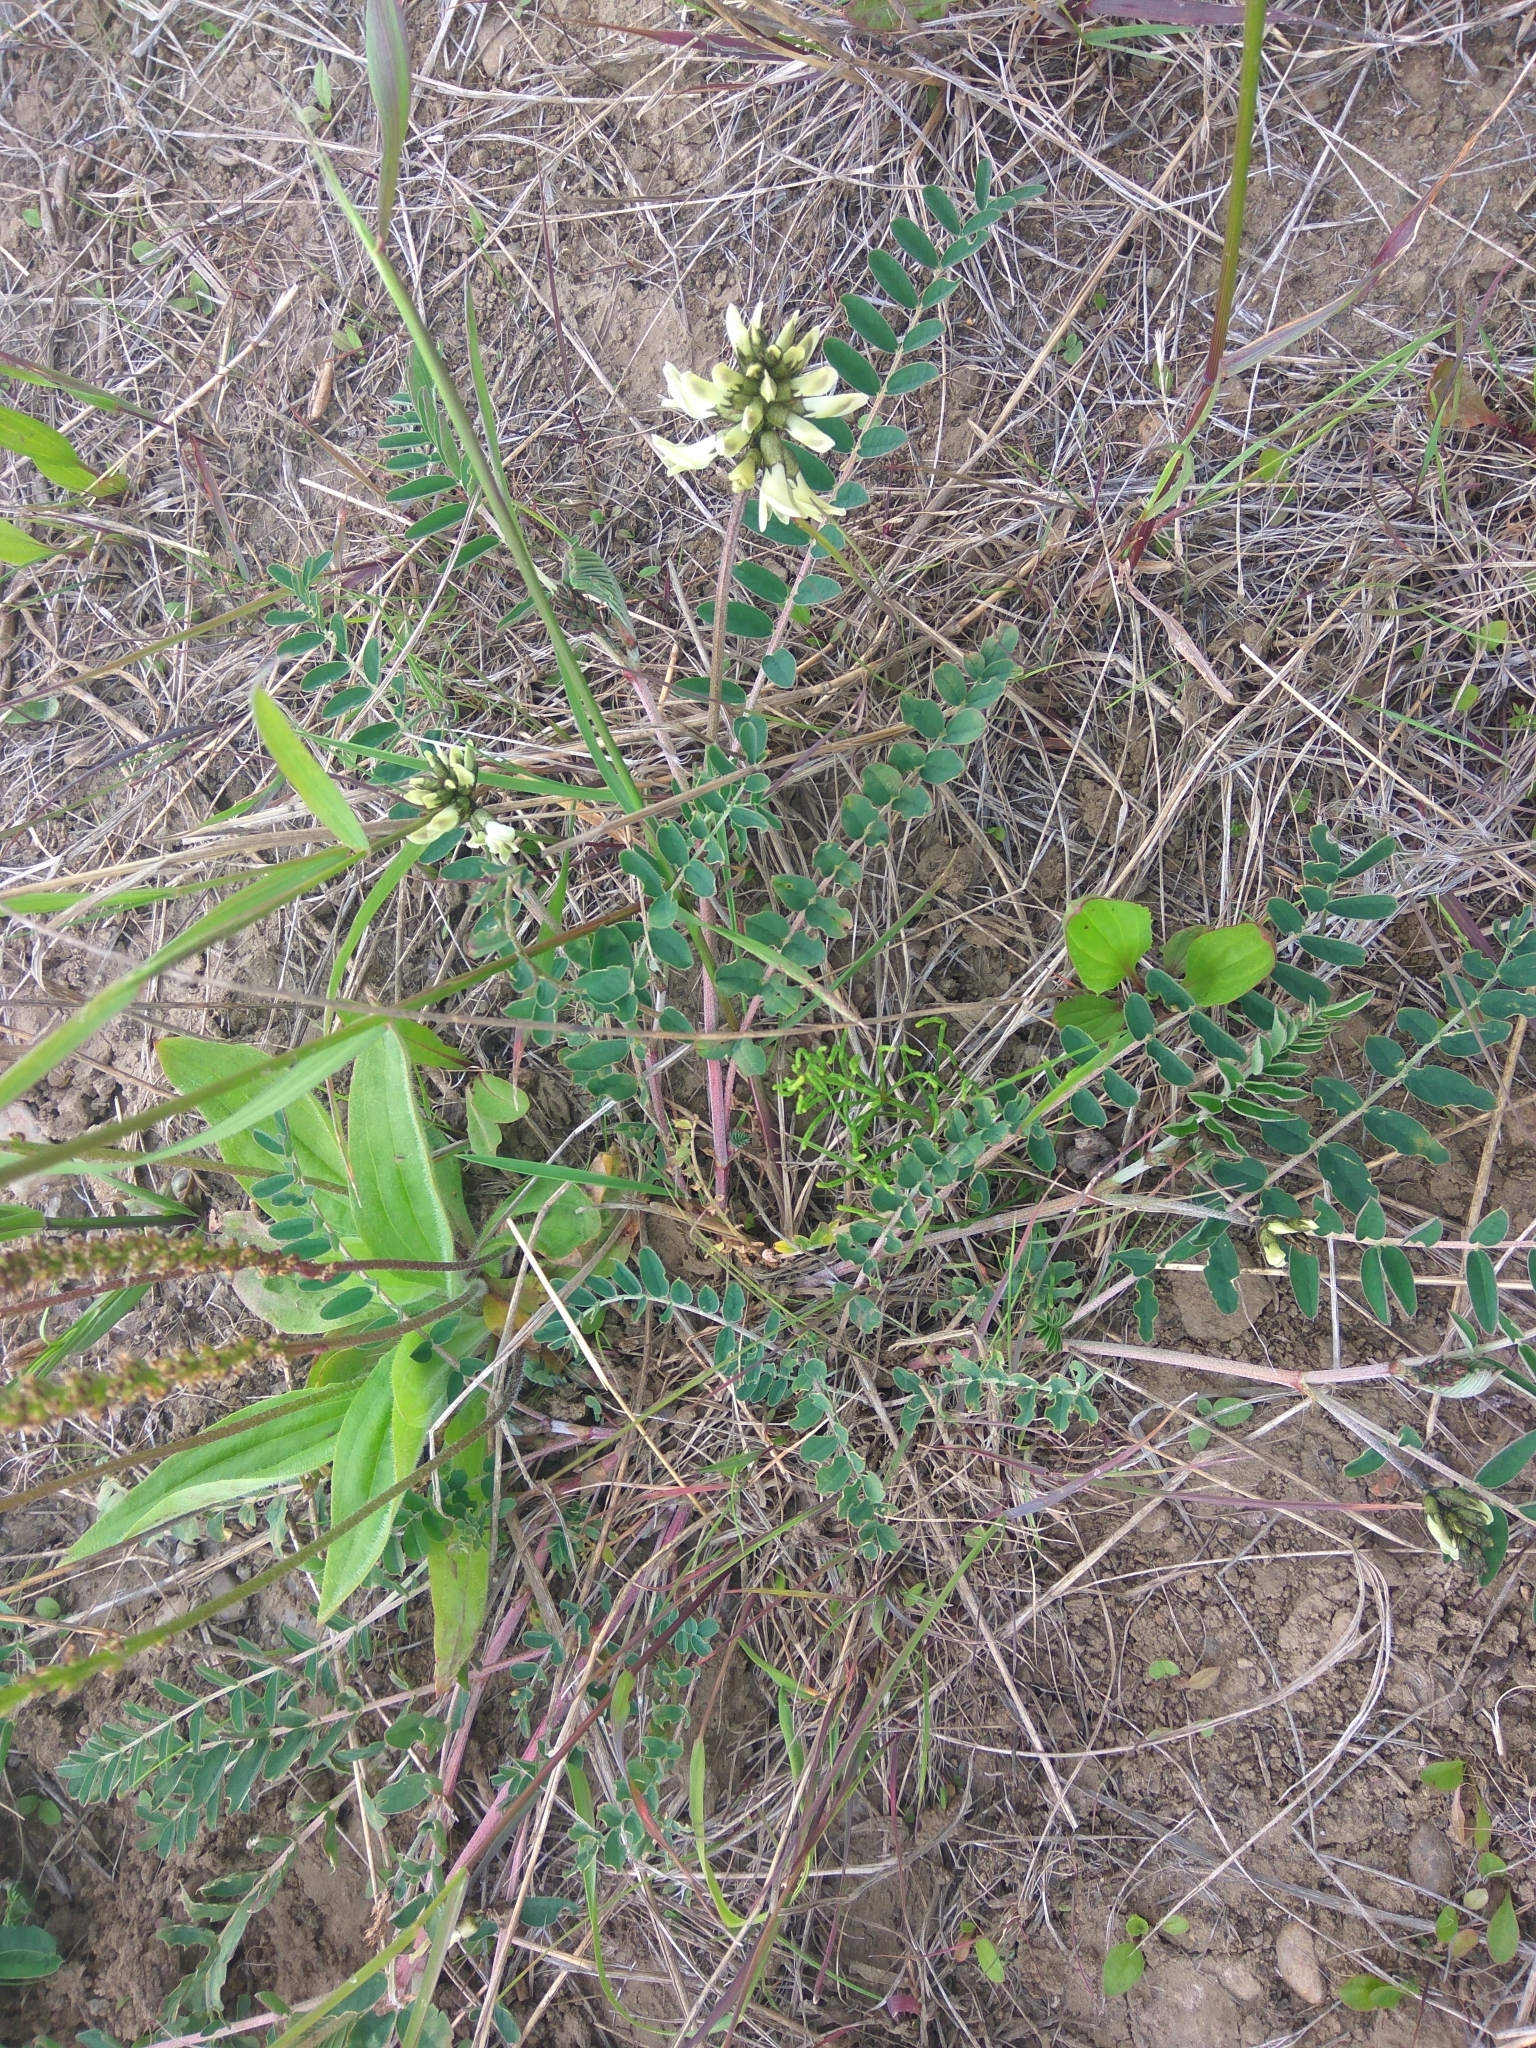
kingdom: Plantae
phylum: Tracheophyta
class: Magnoliopsida
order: Fabales
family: Fabaceae
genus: Astragalus
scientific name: Astragalus schelichowii
